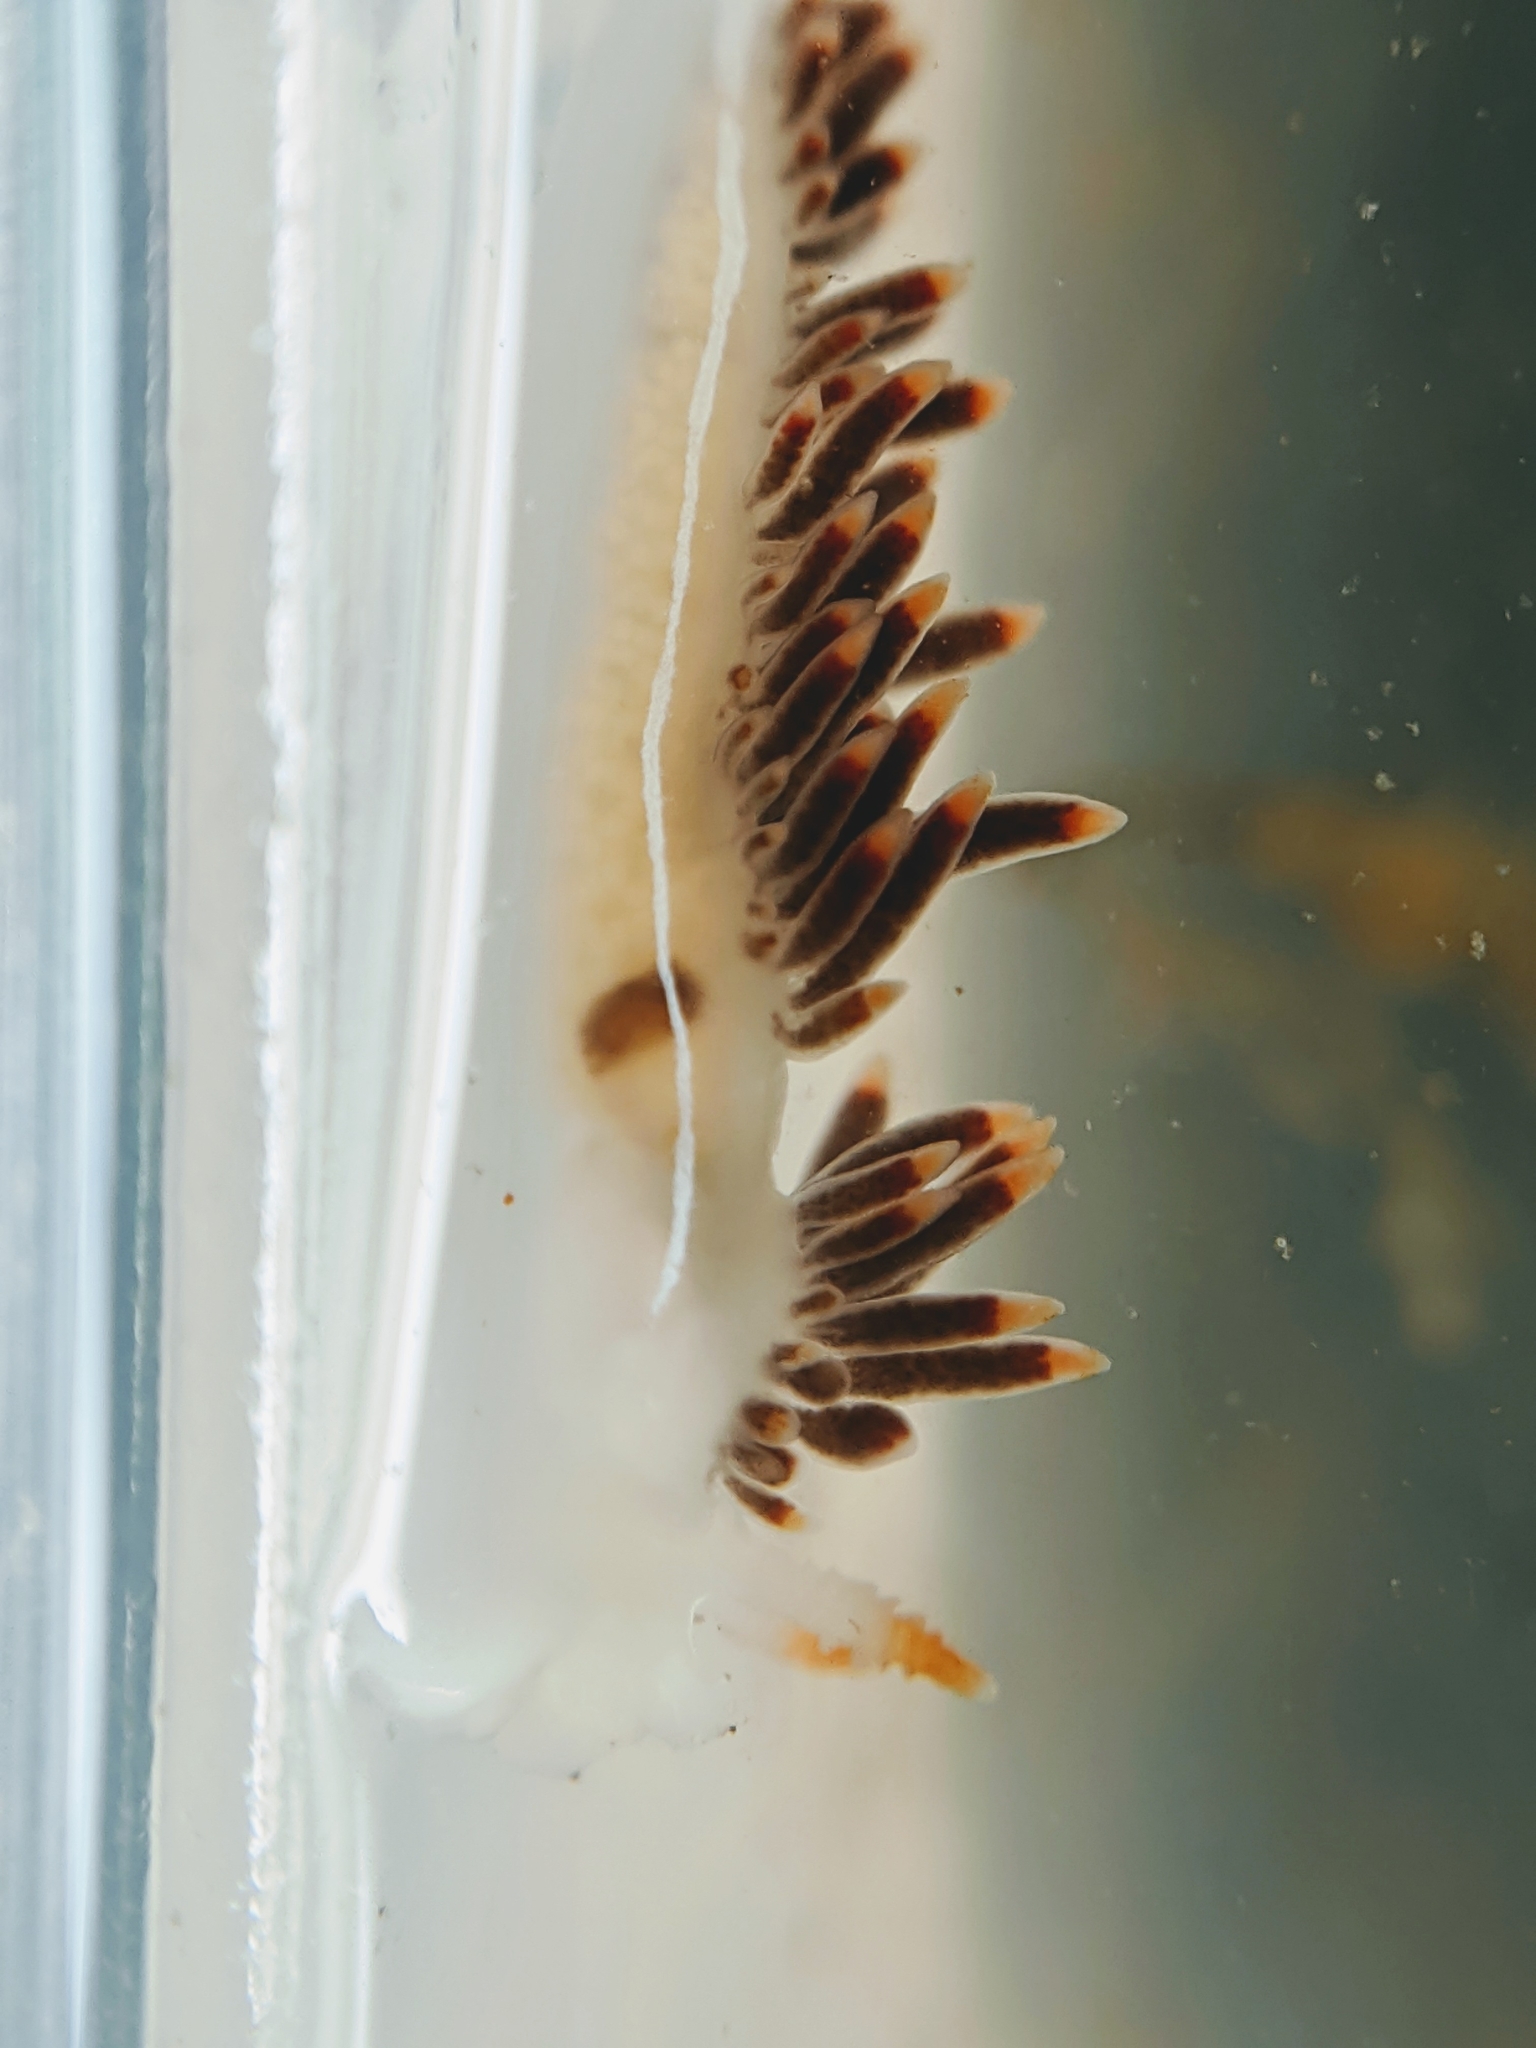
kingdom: Animalia
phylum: Mollusca
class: Gastropoda
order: Nudibranchia
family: Coryphellidae
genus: Coryphella
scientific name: Coryphella trilineata
